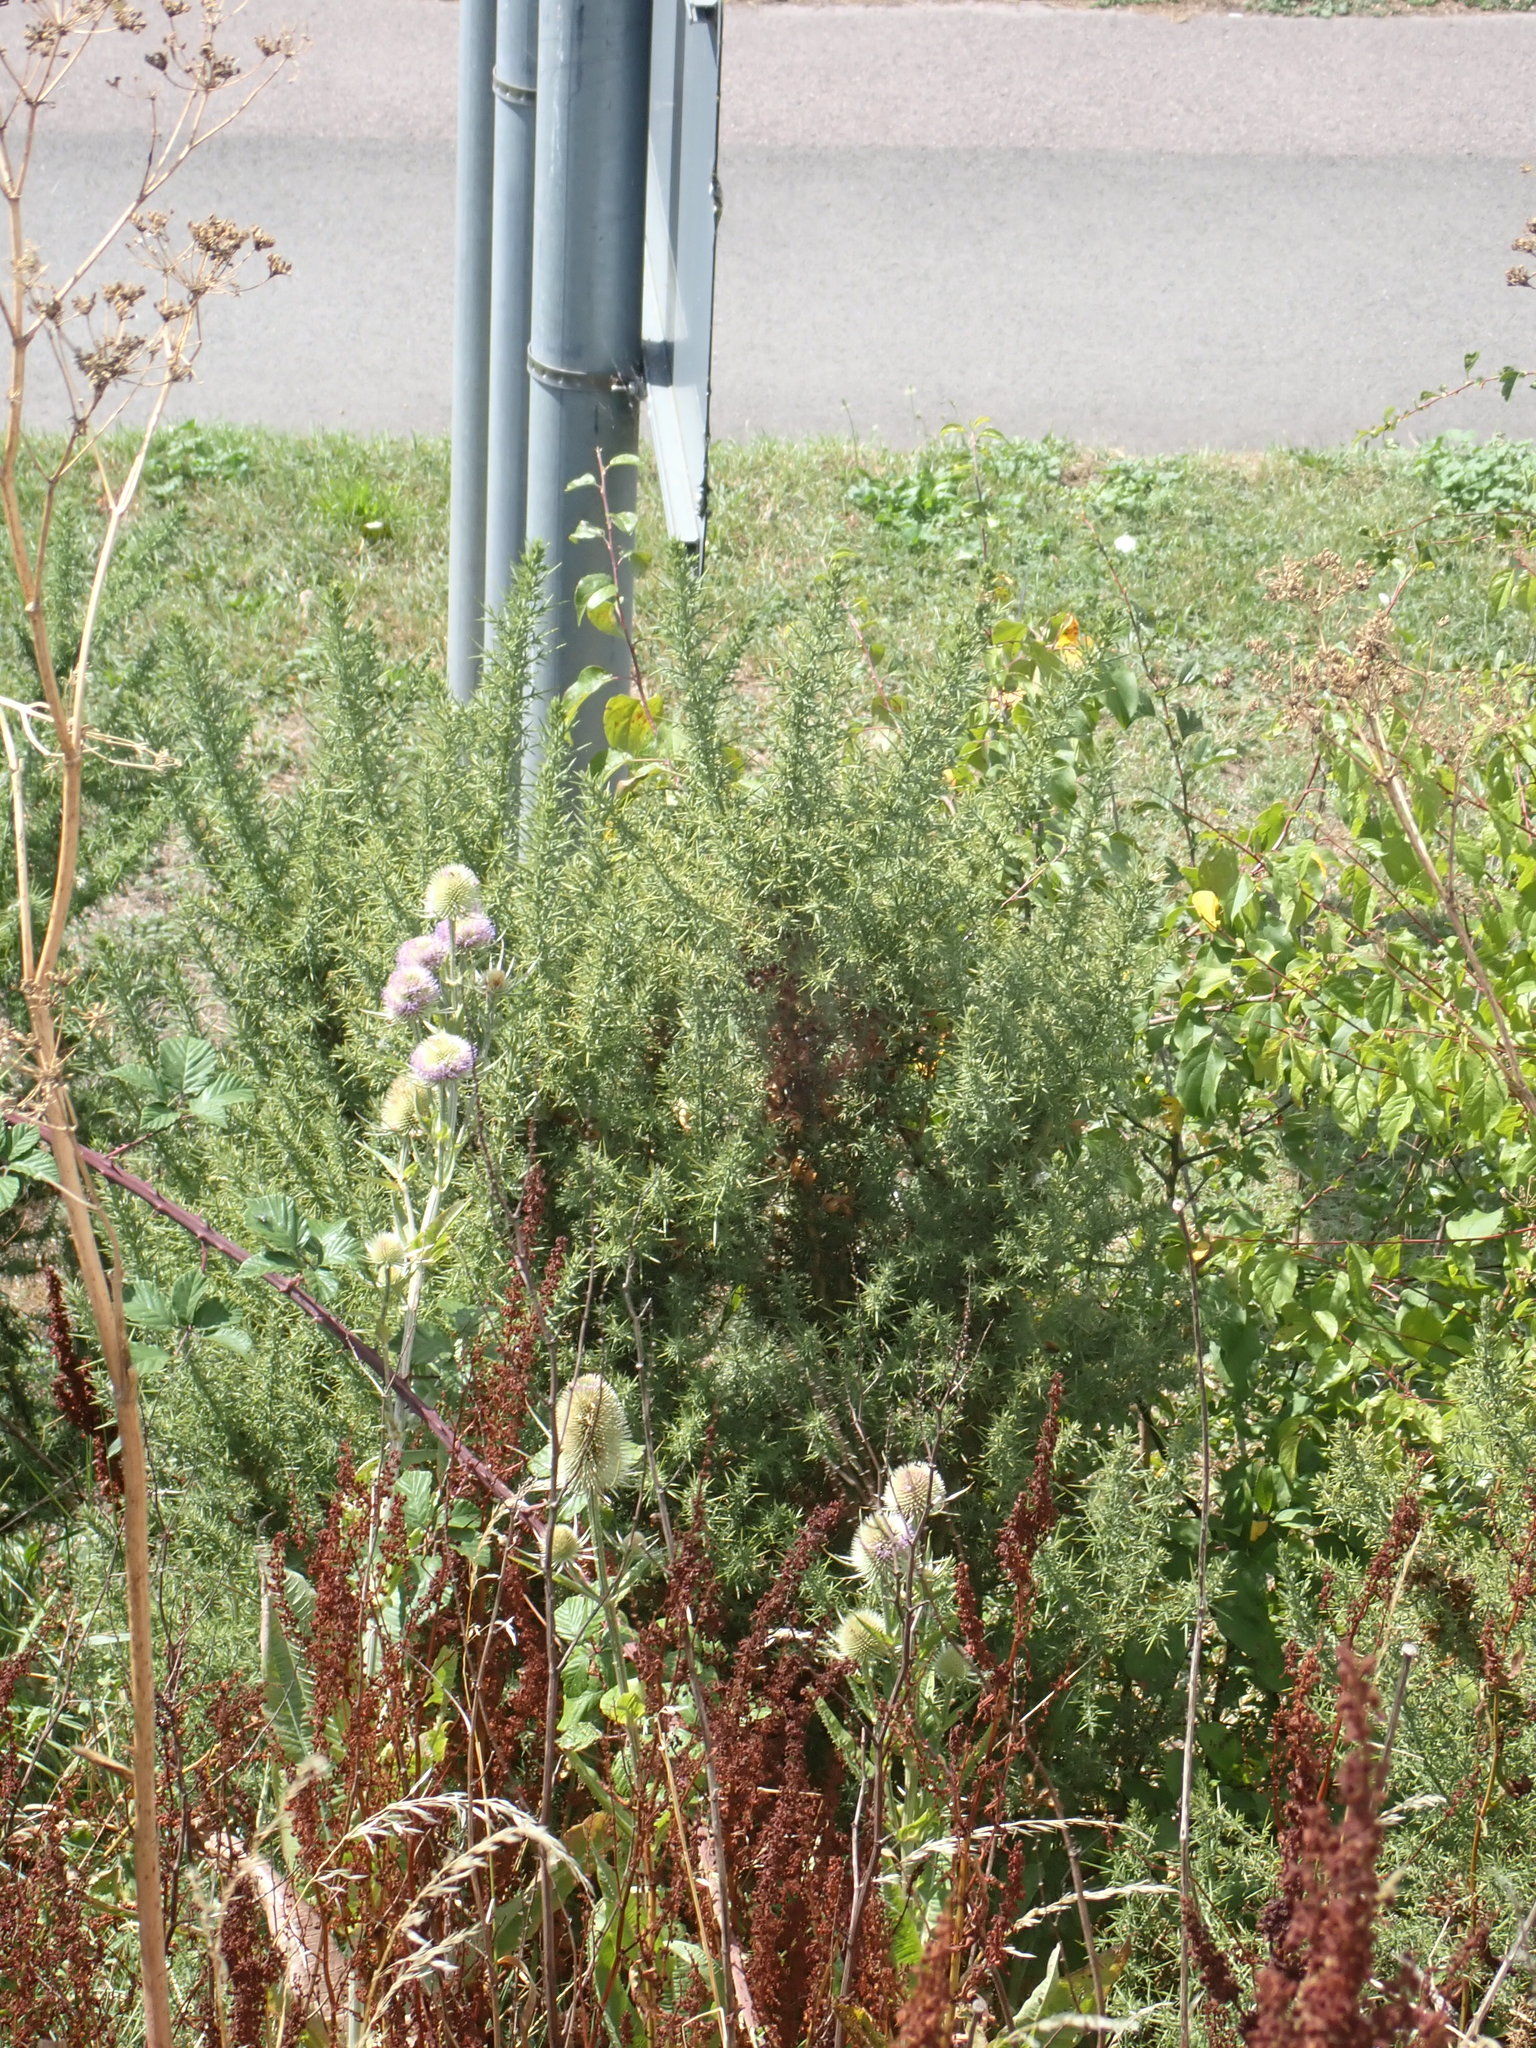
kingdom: Plantae
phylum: Tracheophyta
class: Magnoliopsida
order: Fabales
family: Fabaceae
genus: Ulex
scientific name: Ulex europaeus
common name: Common gorse
